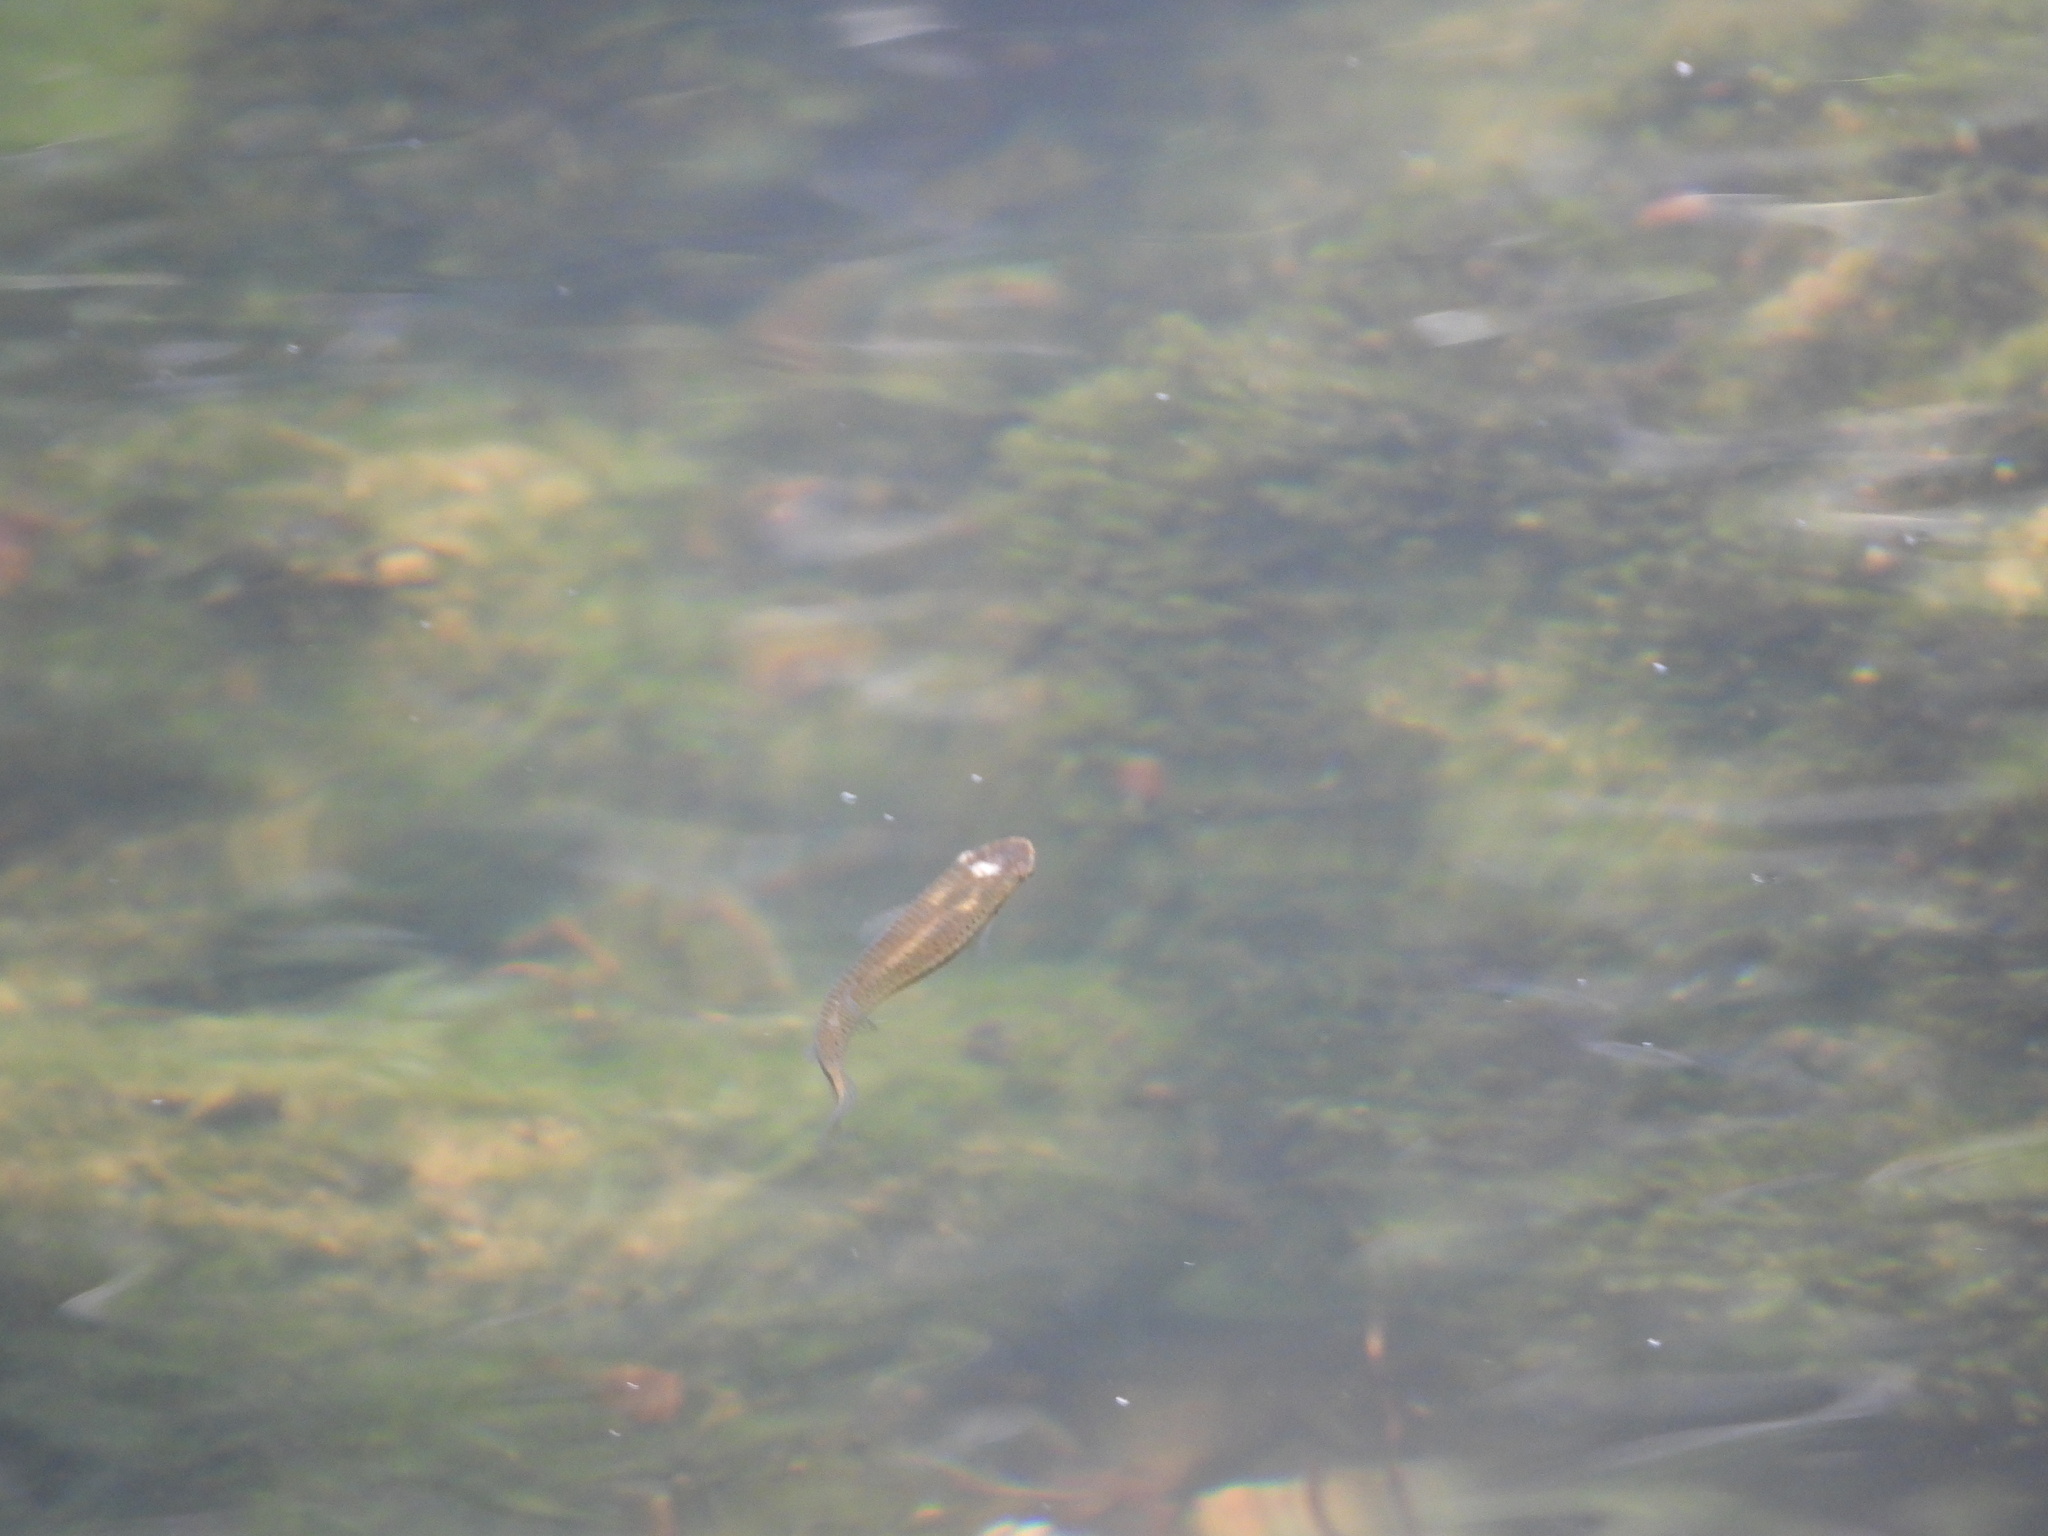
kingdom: Animalia
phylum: Chordata
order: Cyprinodontiformes
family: Fundulidae
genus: Fundulus
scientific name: Fundulus olivaceus
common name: Blackspotted topminnow
